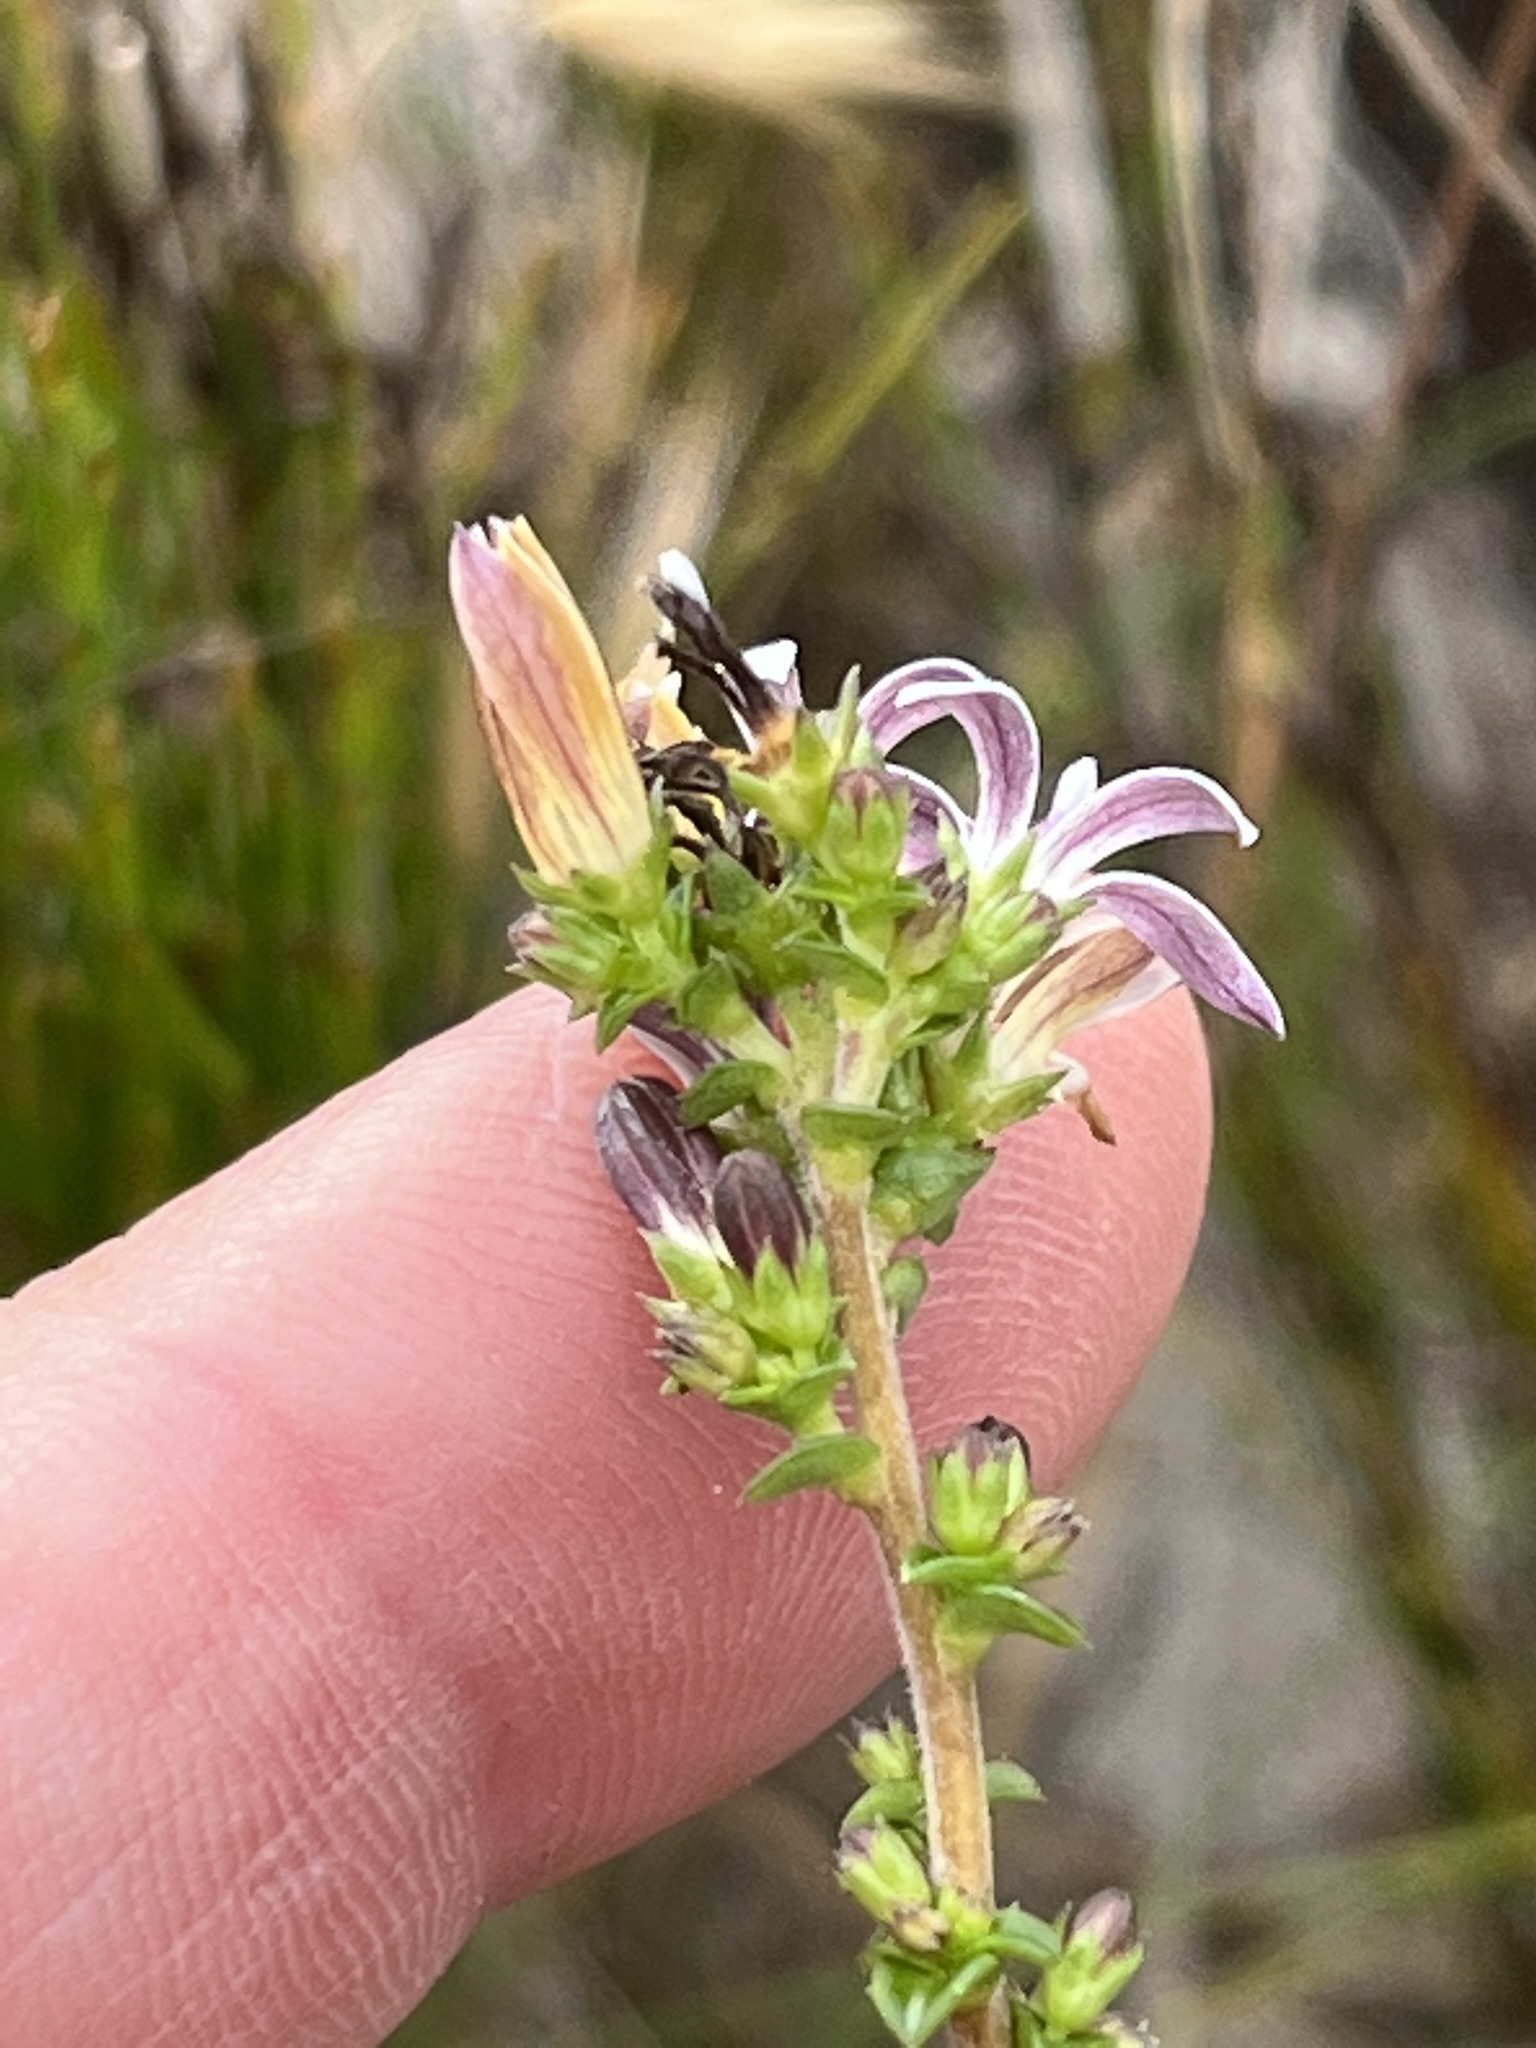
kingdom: Plantae
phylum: Tracheophyta
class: Magnoliopsida
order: Asterales
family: Campanulaceae
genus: Wahlenbergia
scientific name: Wahlenbergia tenella
